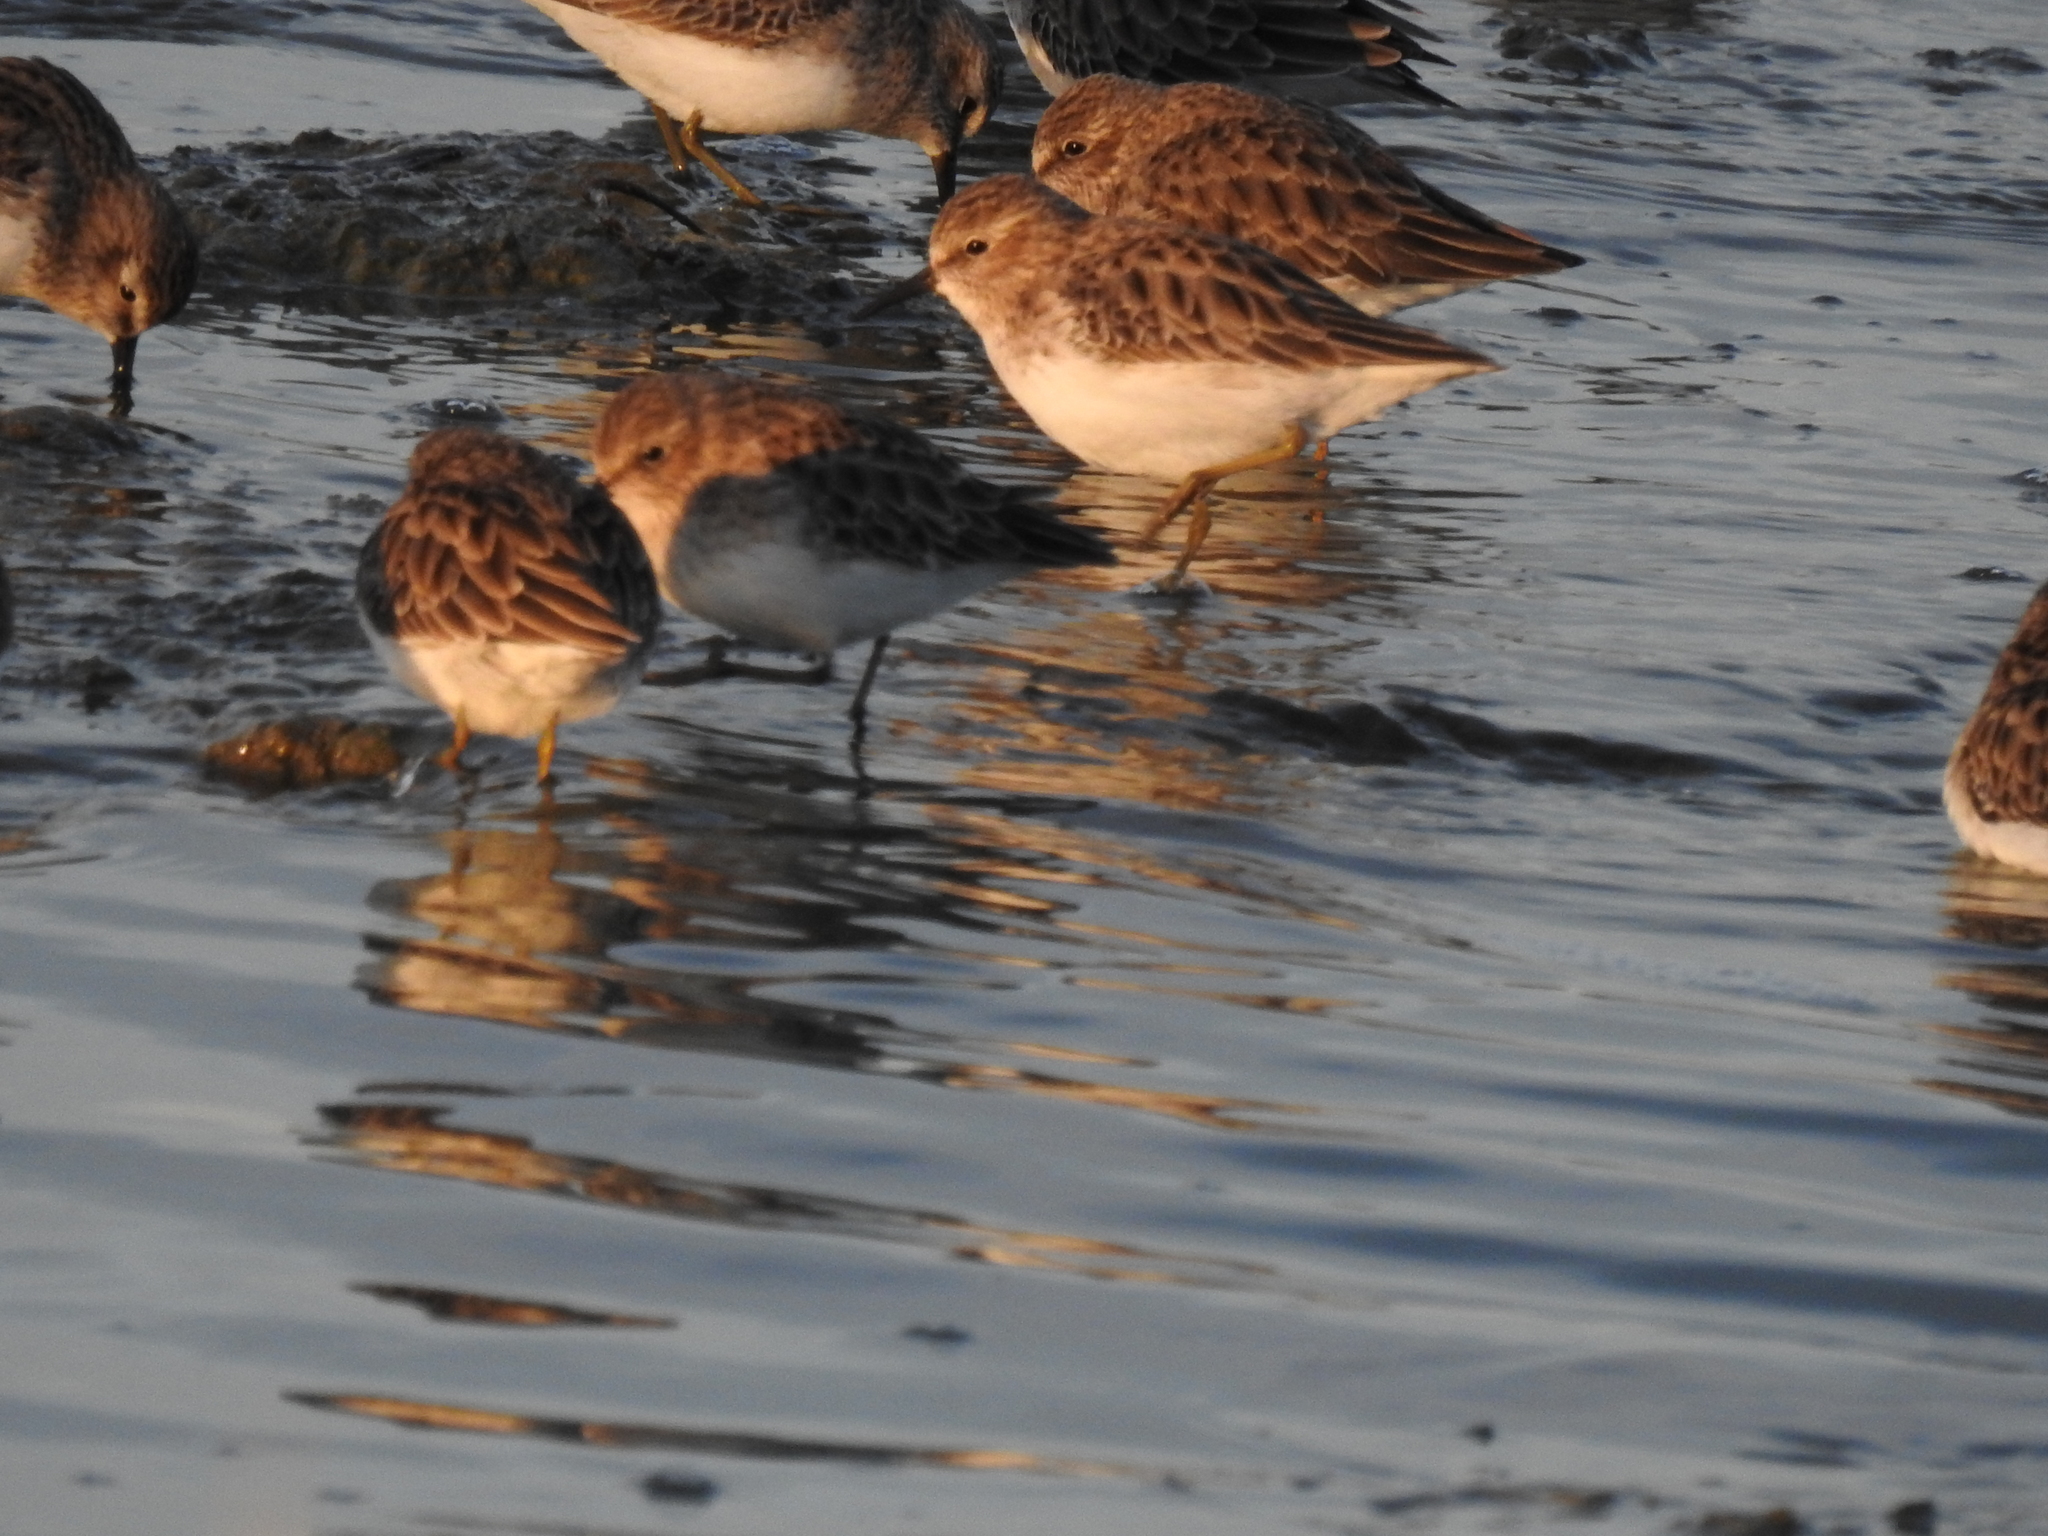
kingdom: Animalia
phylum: Chordata
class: Aves
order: Charadriiformes
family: Scolopacidae
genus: Calidris
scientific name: Calidris minutilla
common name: Least sandpiper
